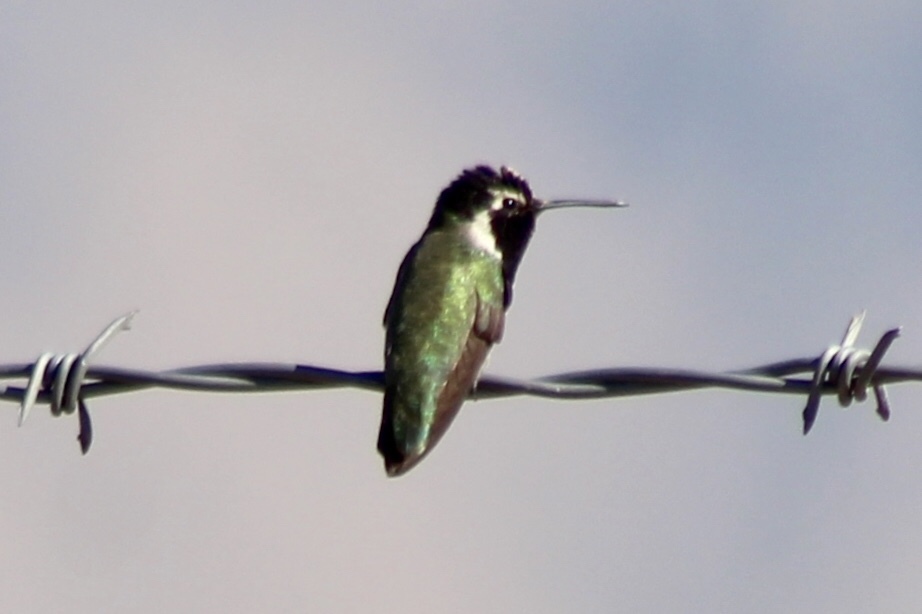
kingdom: Animalia
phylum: Chordata
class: Aves
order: Apodiformes
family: Trochilidae
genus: Calypte
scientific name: Calypte costae
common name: Costa's hummingbird
